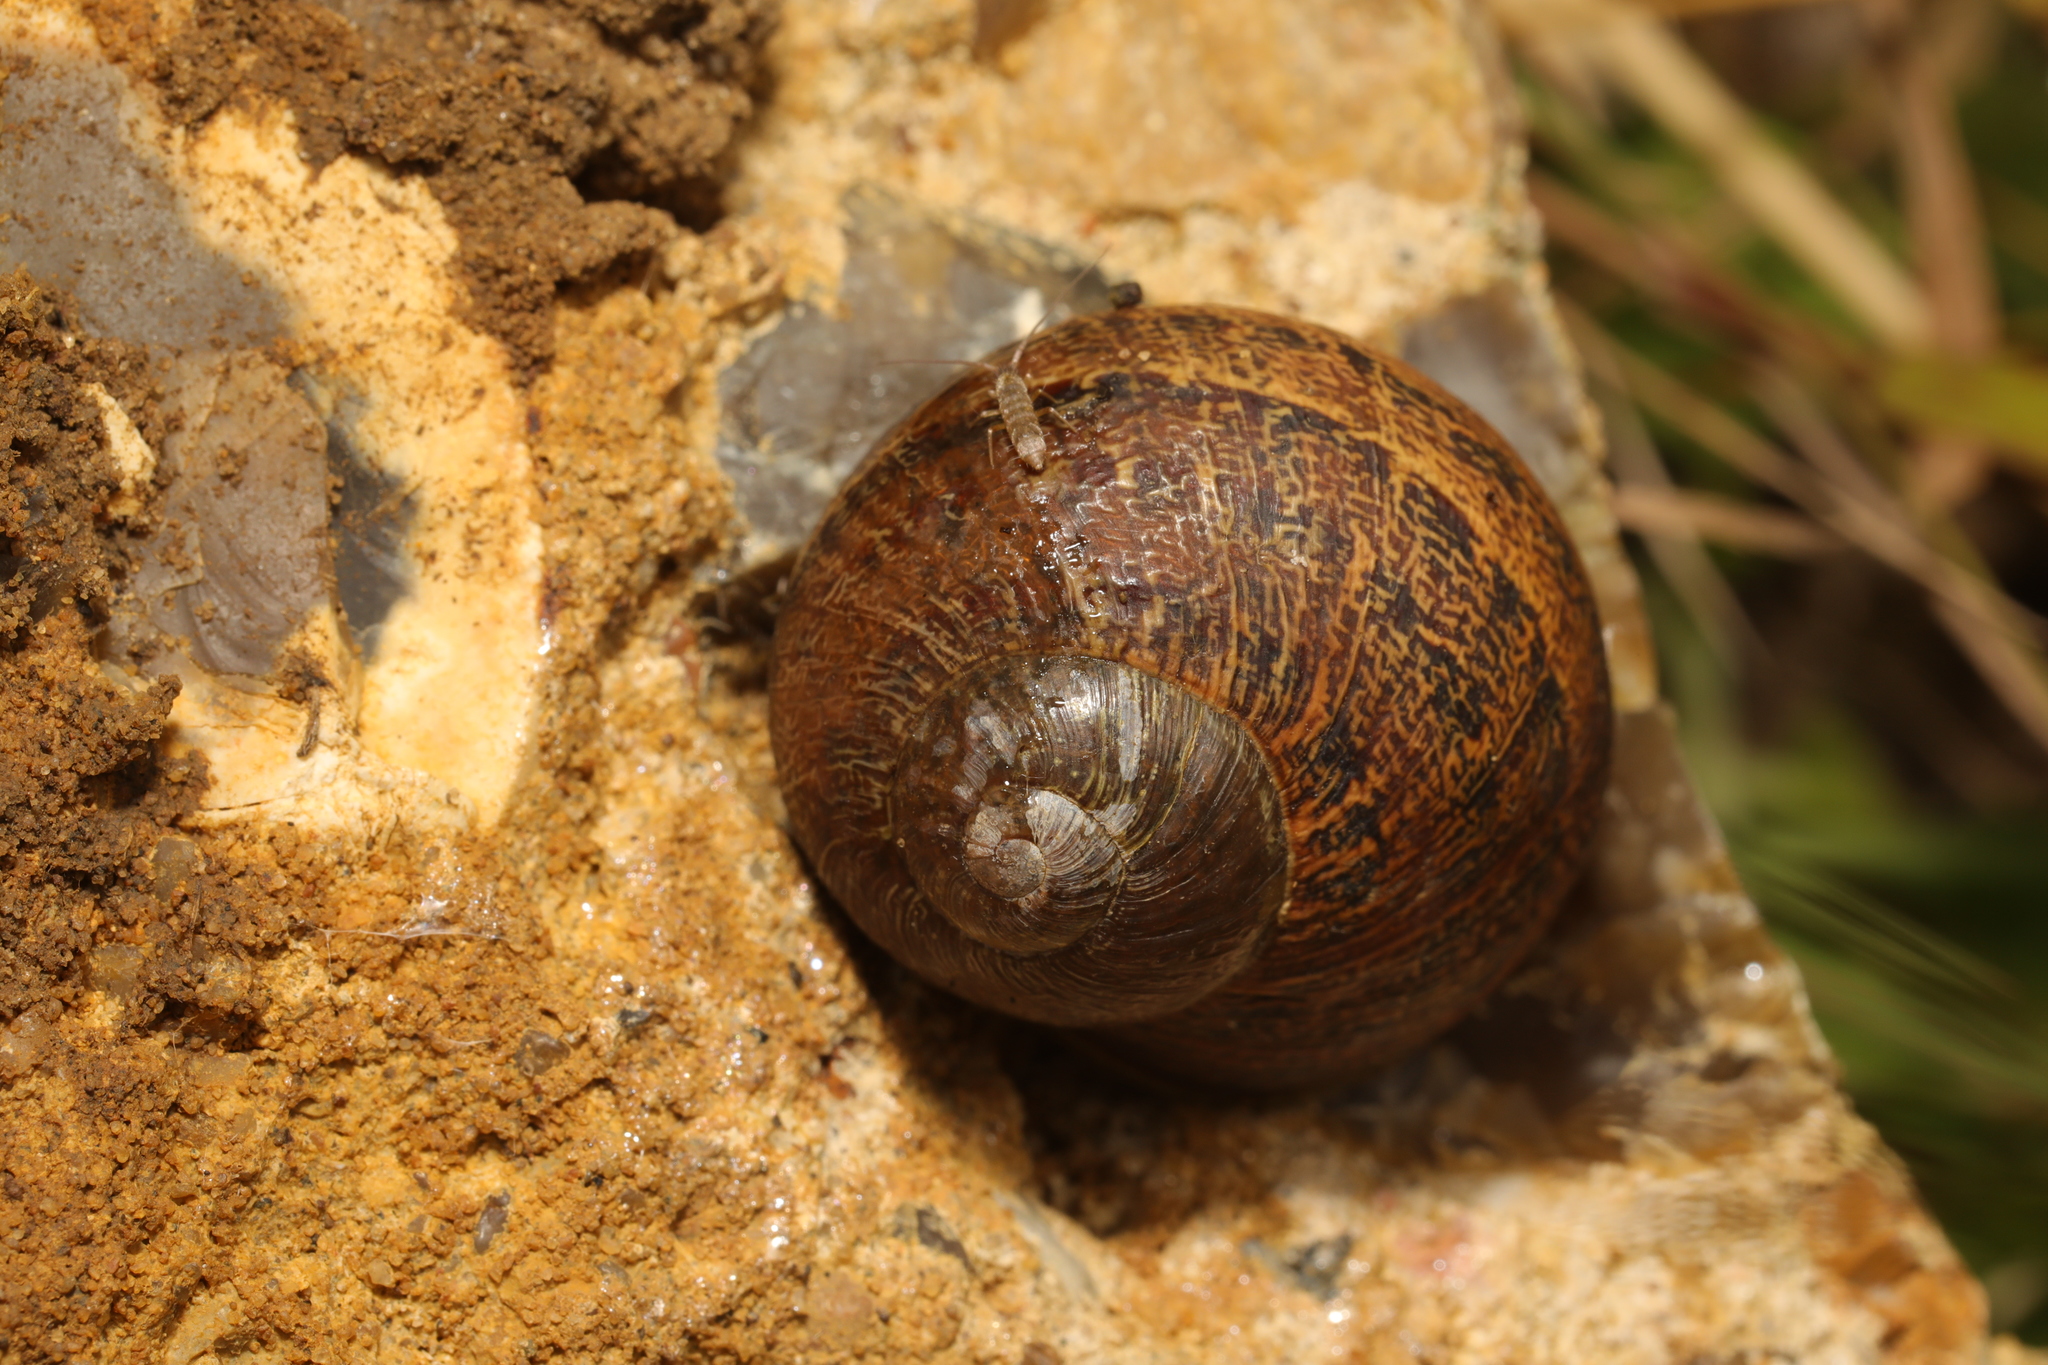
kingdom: Animalia
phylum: Mollusca
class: Gastropoda
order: Stylommatophora
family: Helicidae
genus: Cornu
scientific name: Cornu aspersum
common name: Brown garden snail
